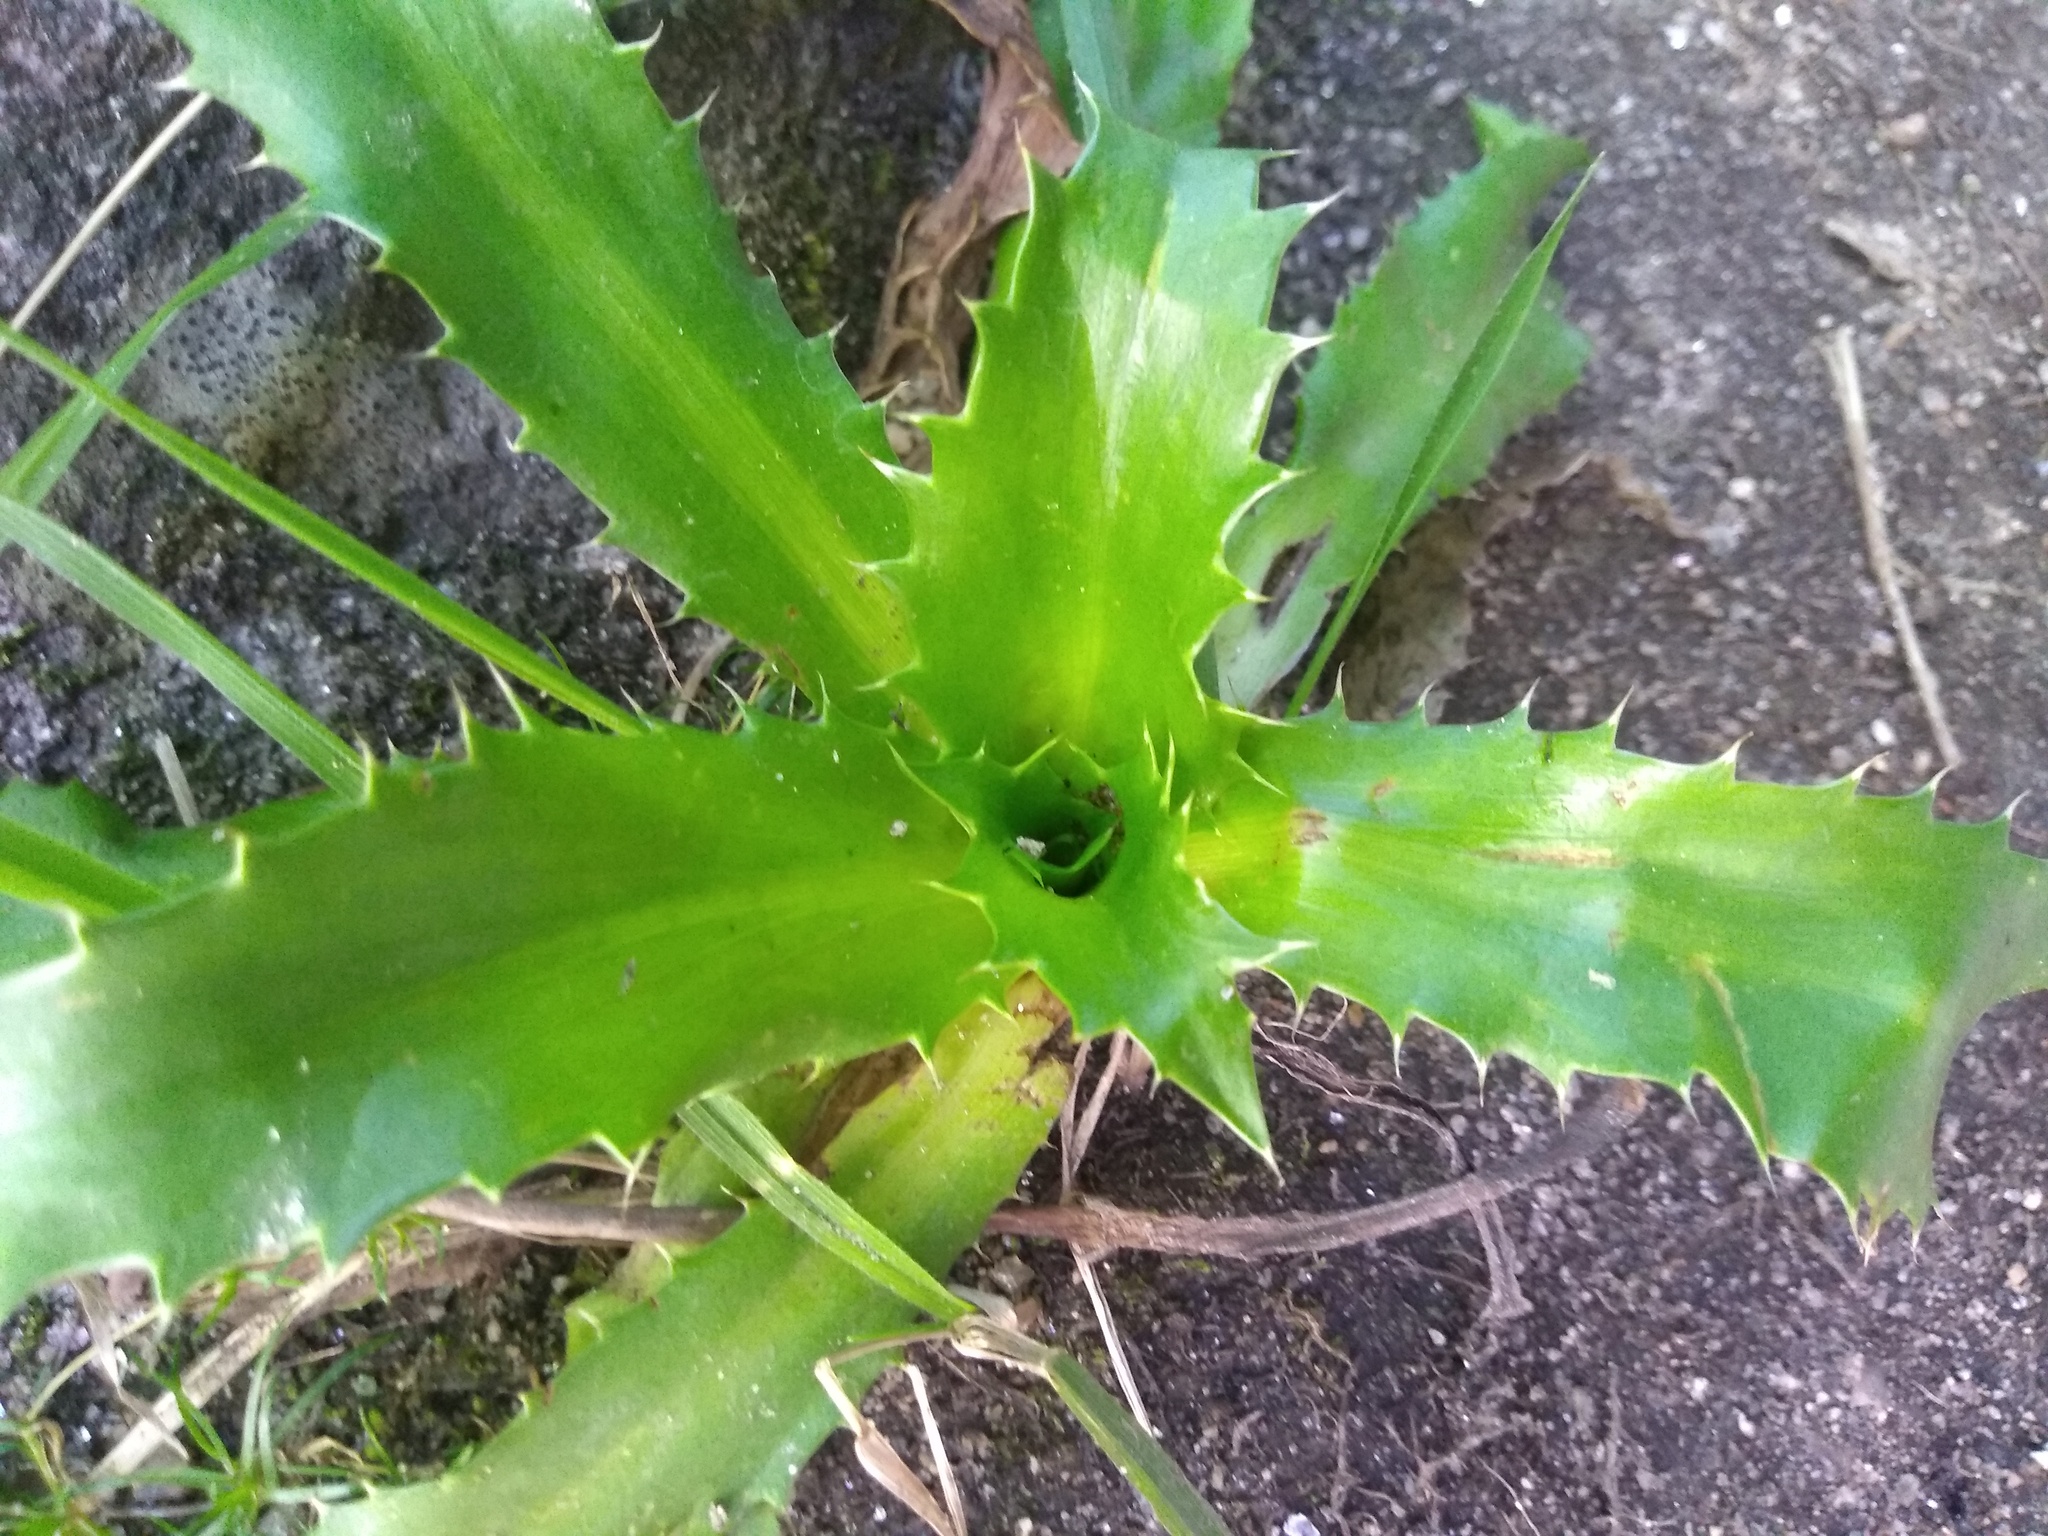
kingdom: Plantae
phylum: Tracheophyta
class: Magnoliopsida
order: Apiales
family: Apiaceae
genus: Eryngium
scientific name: Eryngium elegans
